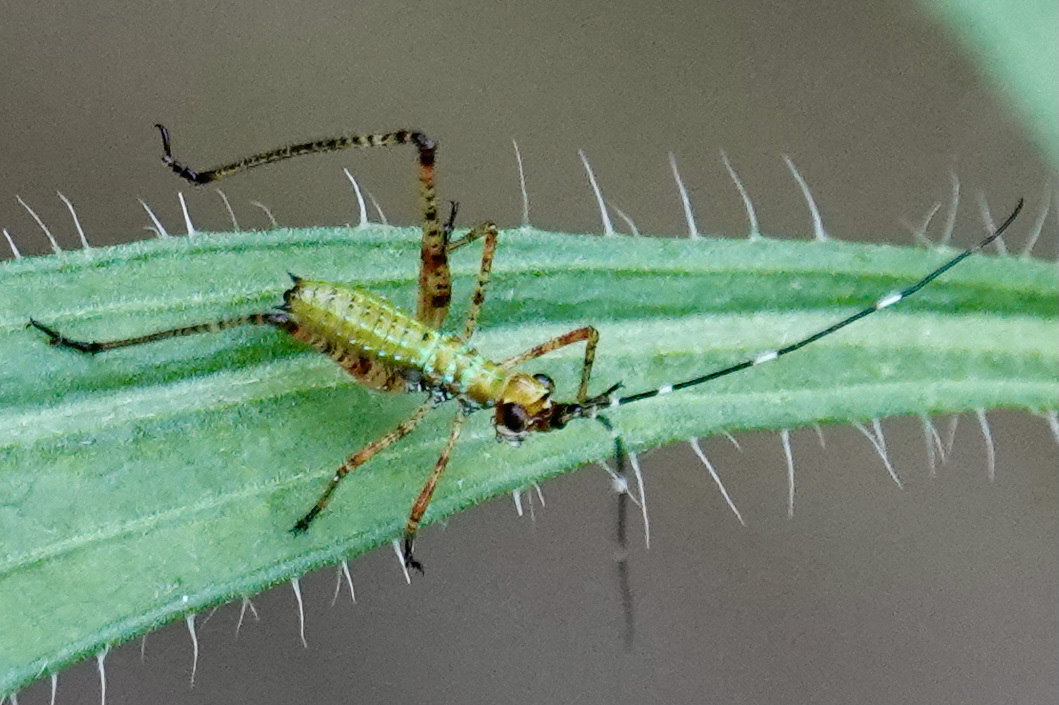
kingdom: Animalia
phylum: Arthropoda
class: Insecta
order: Orthoptera
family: Tettigoniidae
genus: Scudderia
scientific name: Scudderia furcata
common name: Fork-tailed bush katydid
